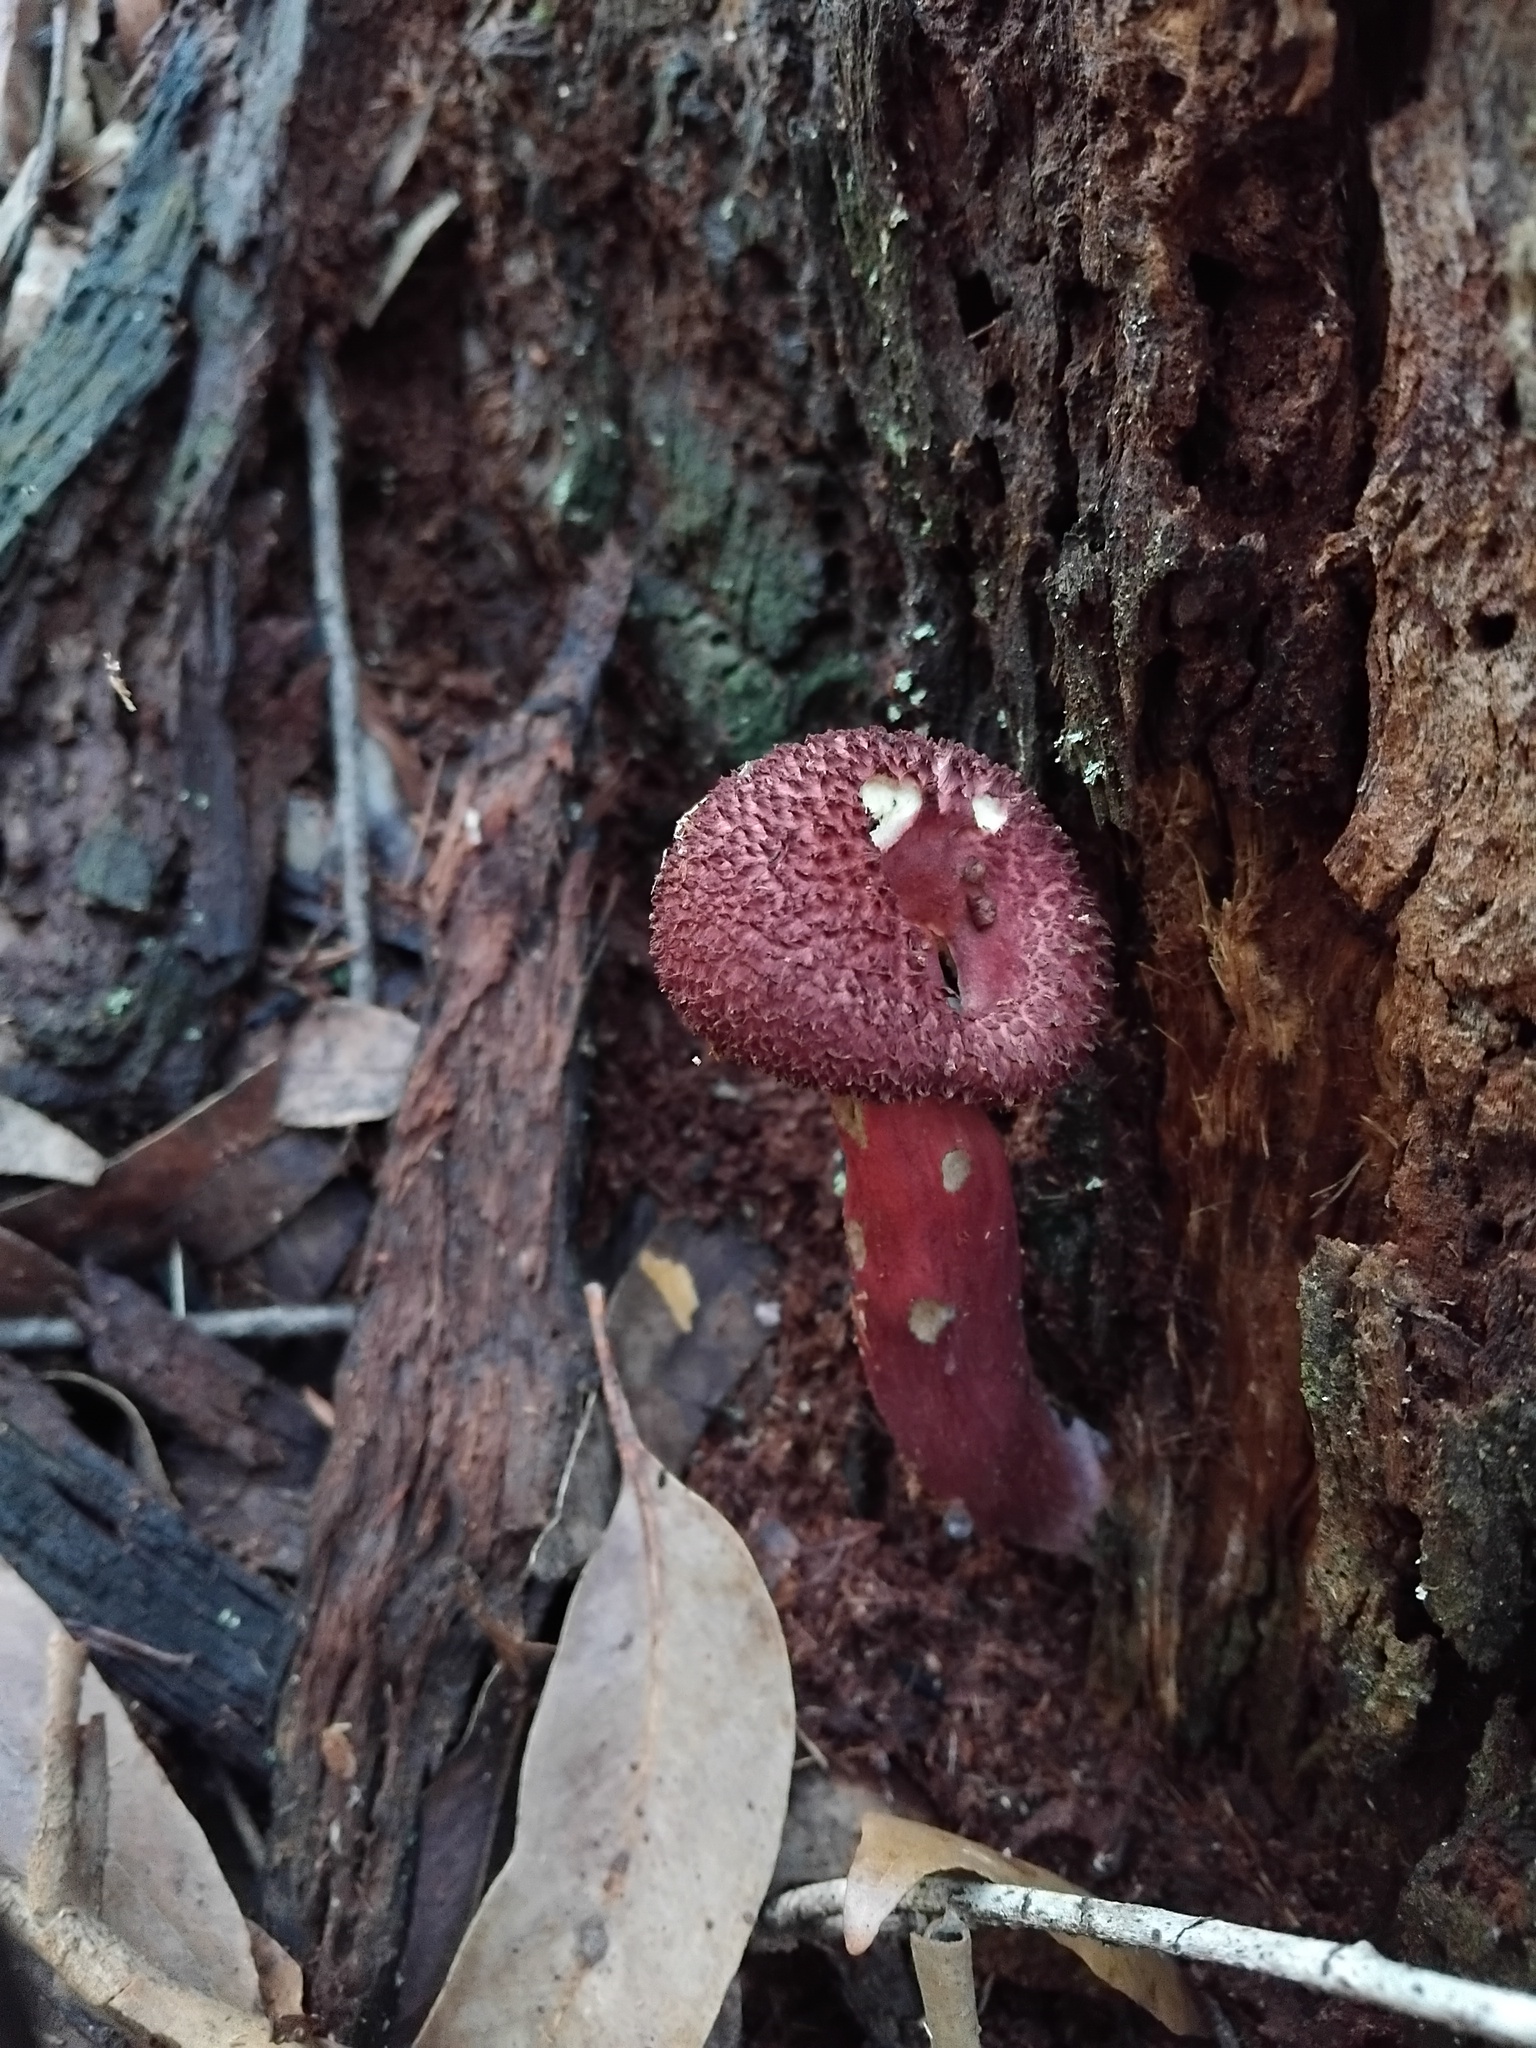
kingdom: Fungi
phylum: Basidiomycota
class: Agaricomycetes
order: Boletales
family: Boletaceae
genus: Boletellus
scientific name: Boletellus emodensis
